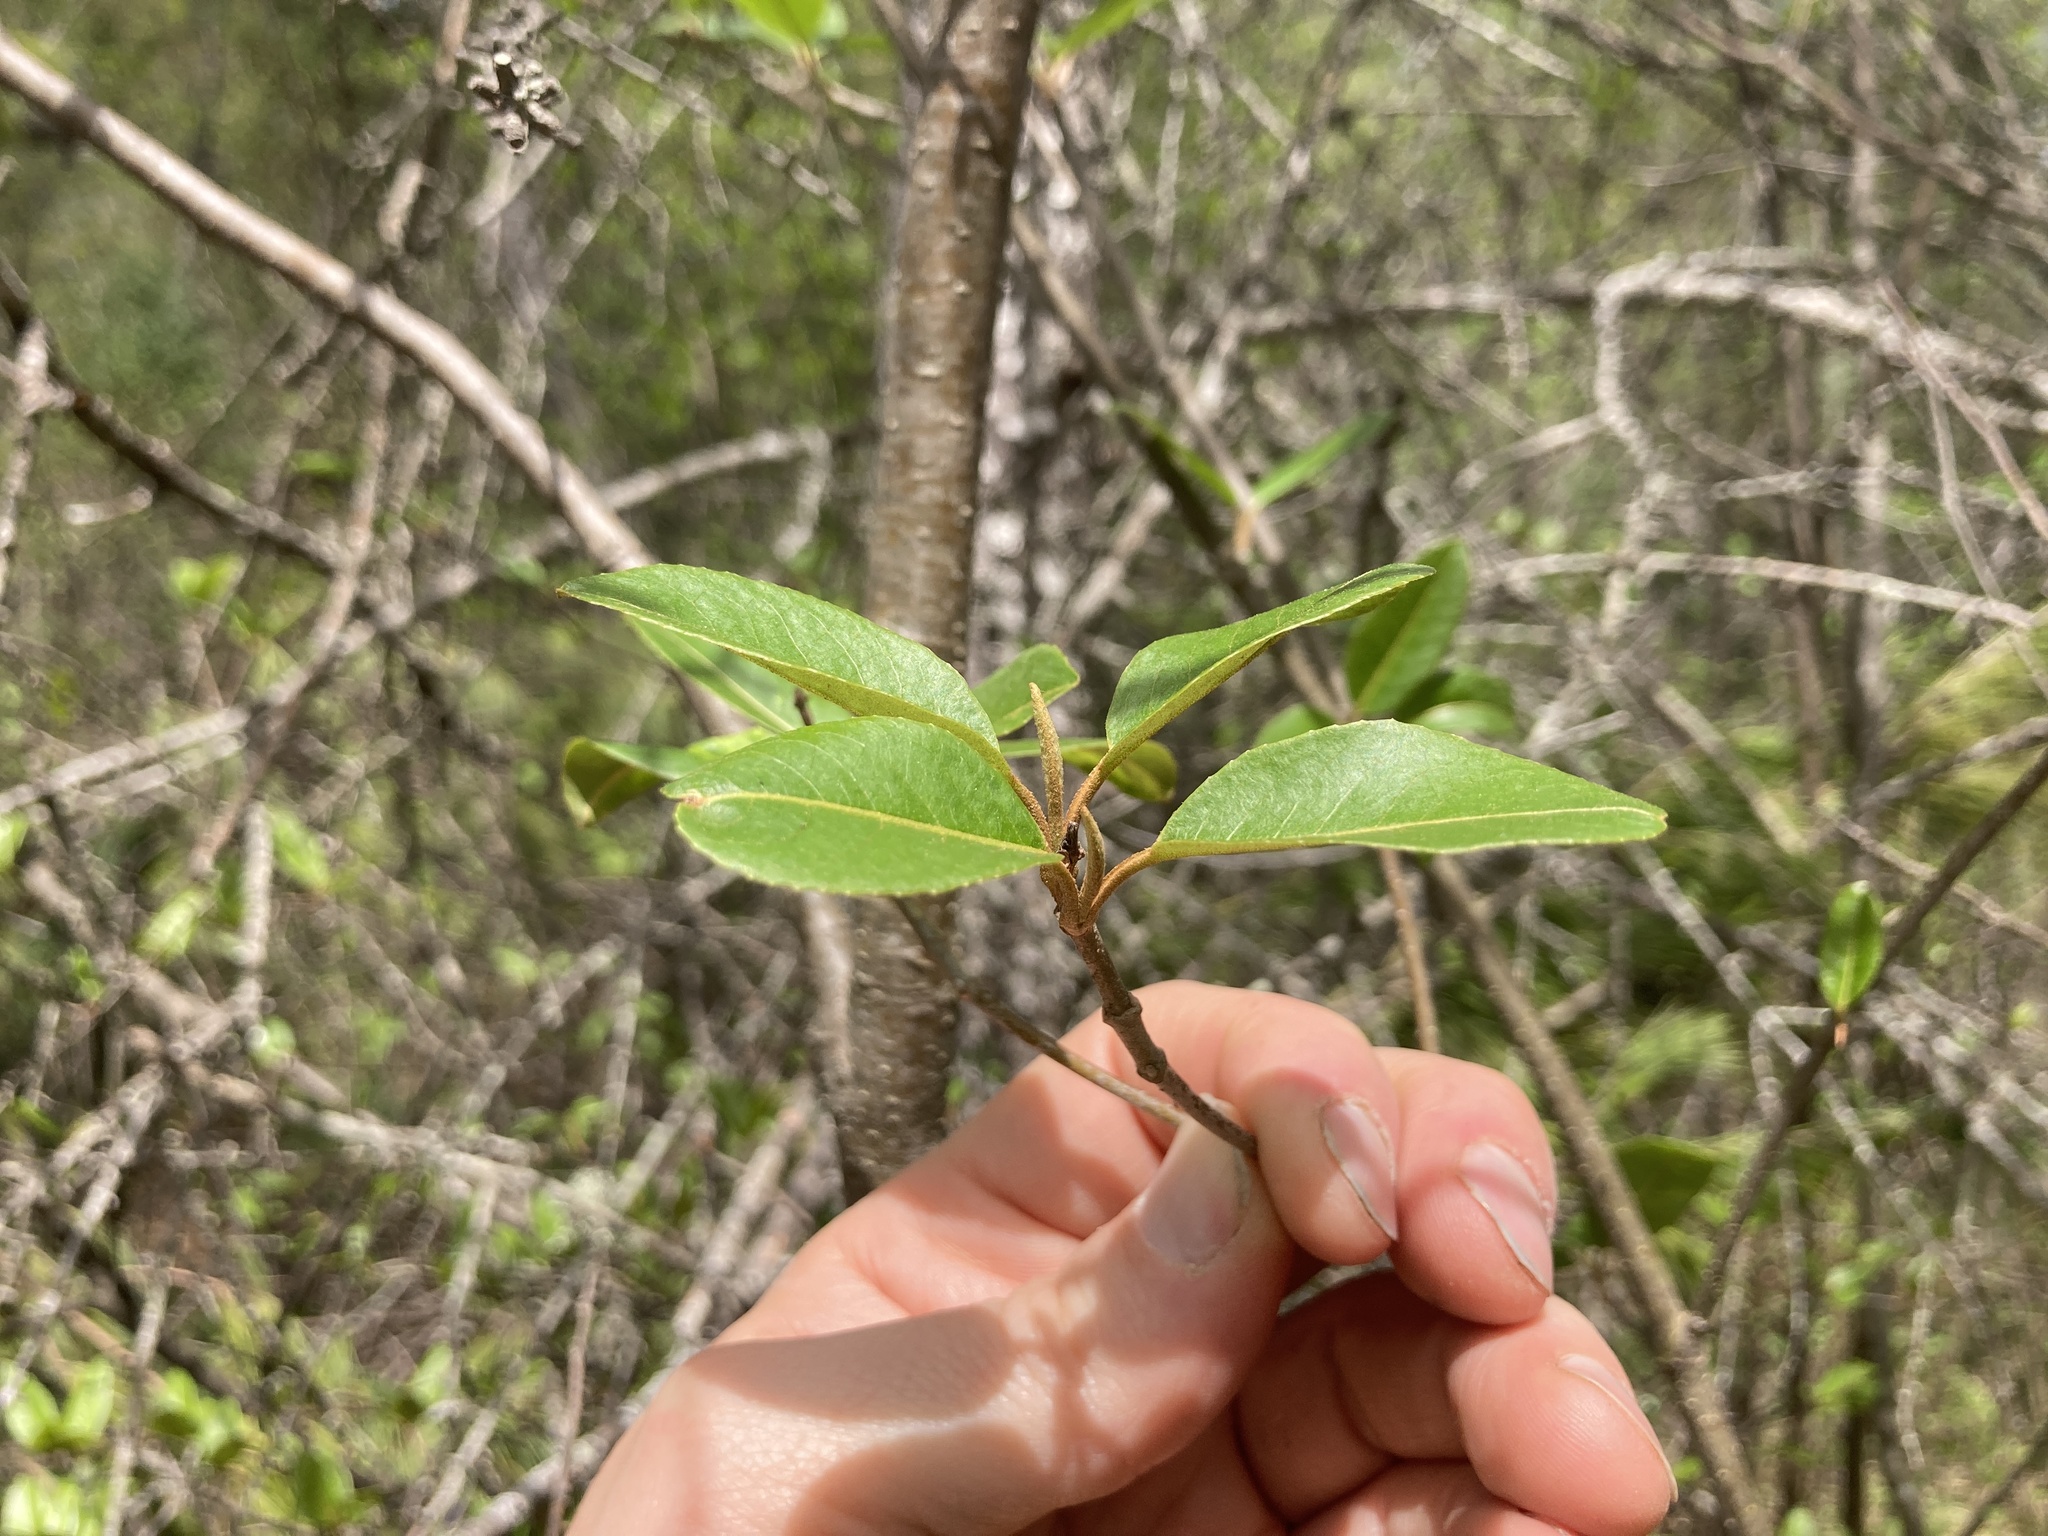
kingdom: Plantae
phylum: Tracheophyta
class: Magnoliopsida
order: Dipsacales
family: Viburnaceae
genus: Viburnum
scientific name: Viburnum cassinoides
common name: Swamp haw
